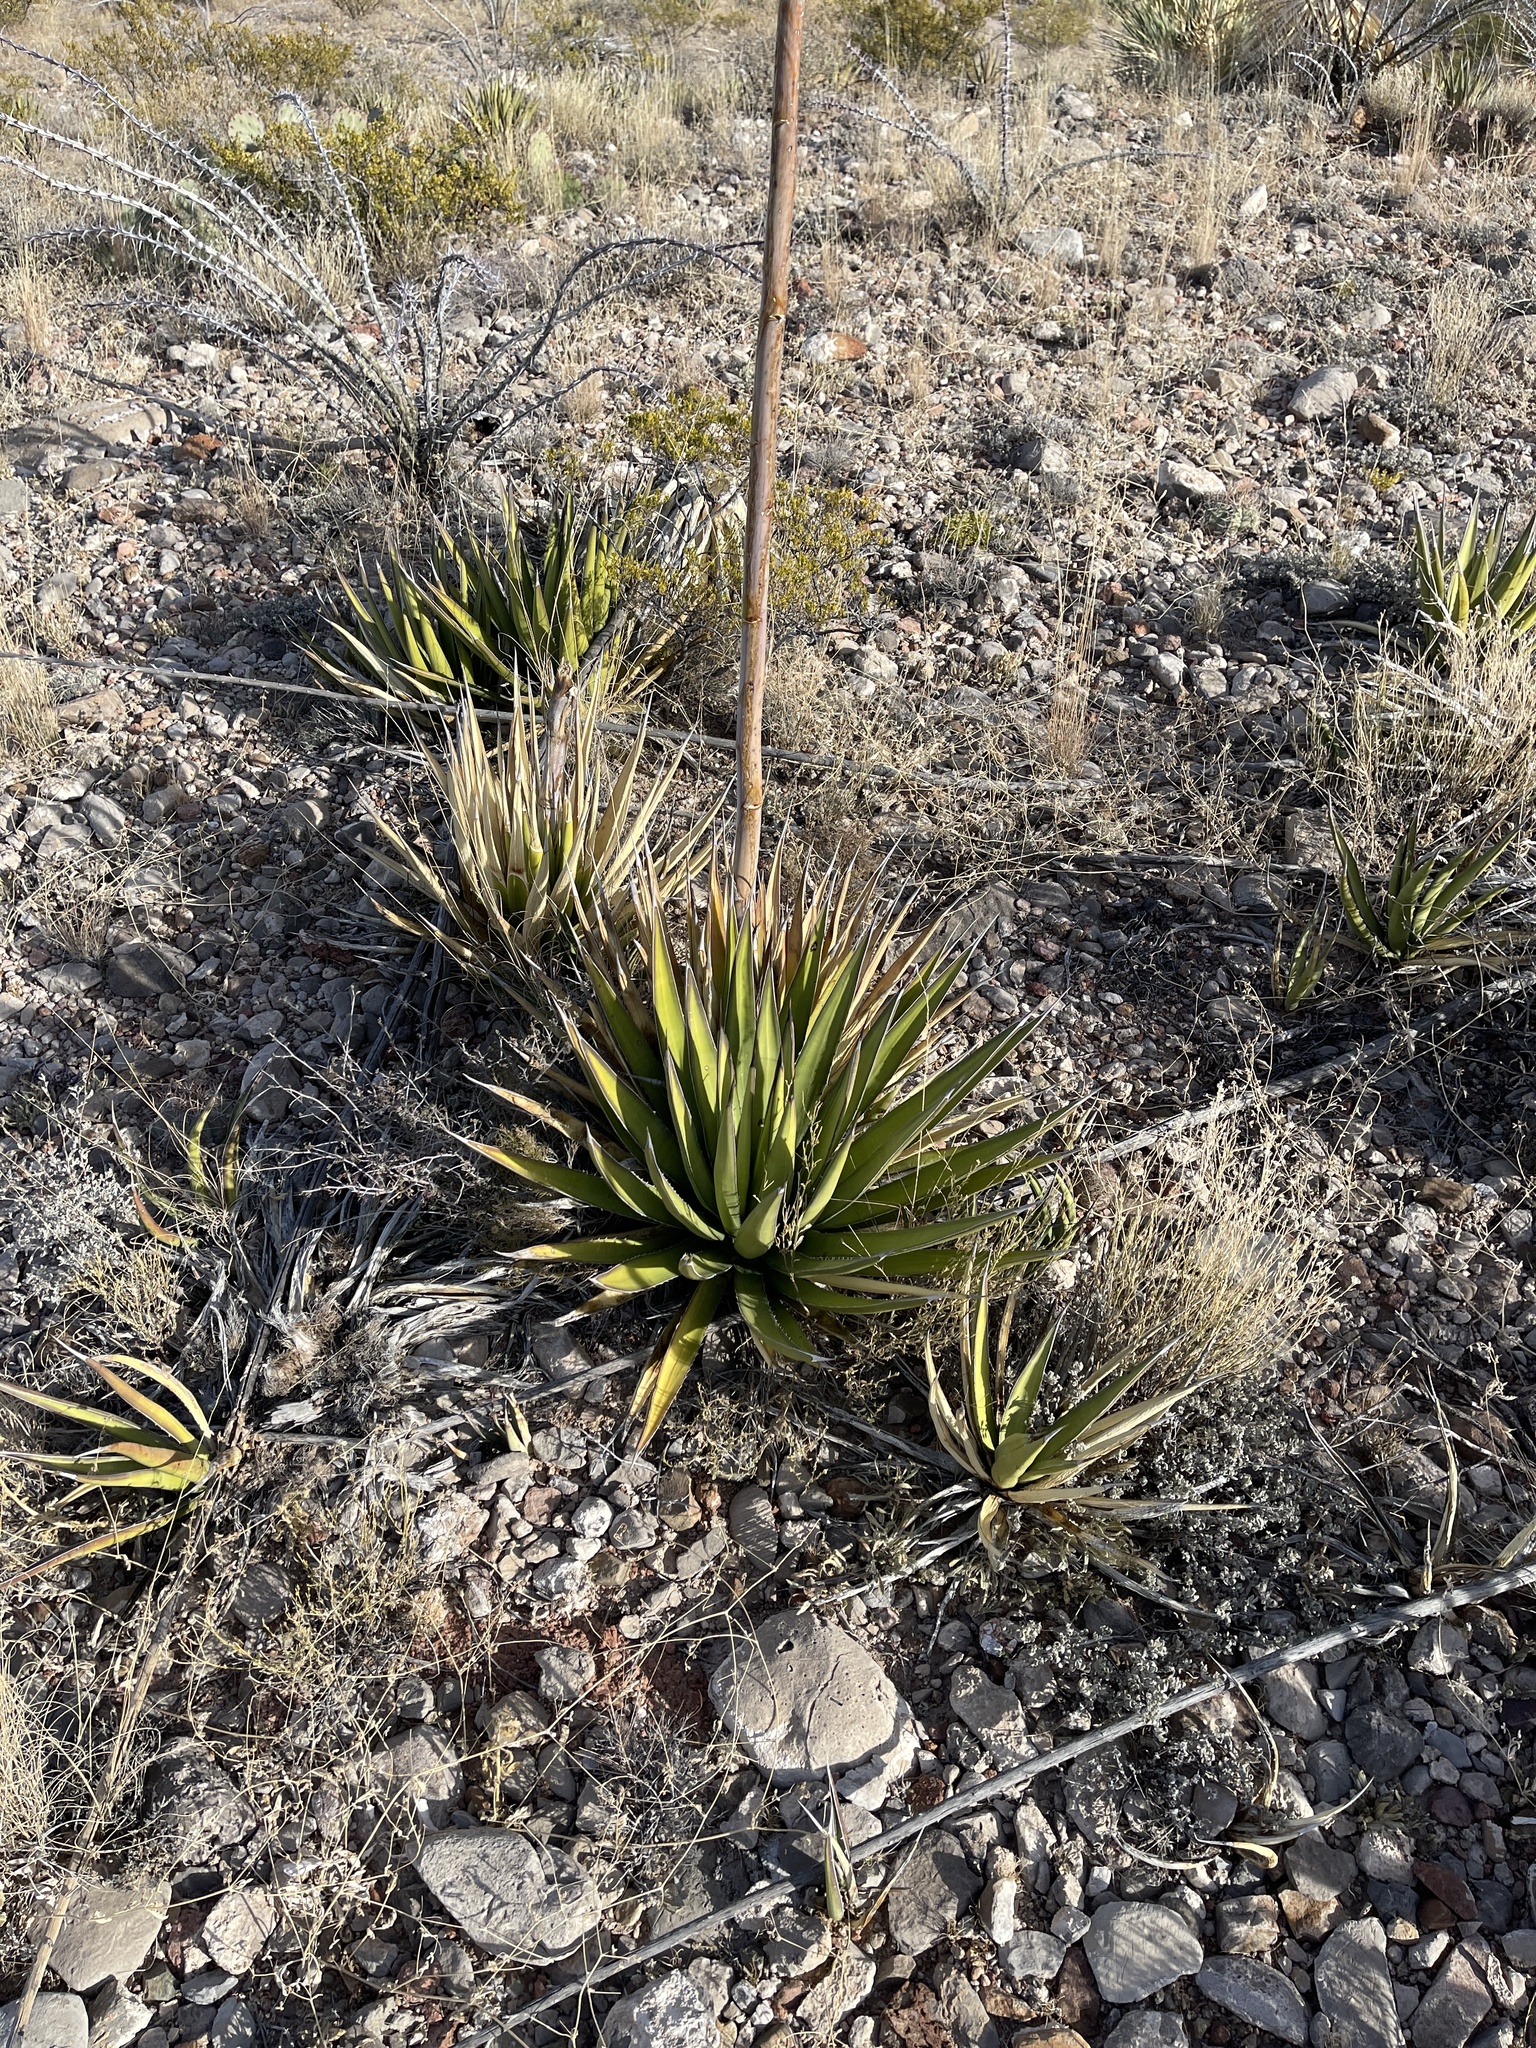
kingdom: Plantae
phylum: Tracheophyta
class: Liliopsida
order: Asparagales
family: Asparagaceae
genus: Agave
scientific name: Agave lechuguilla
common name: Lecheguilla agave
